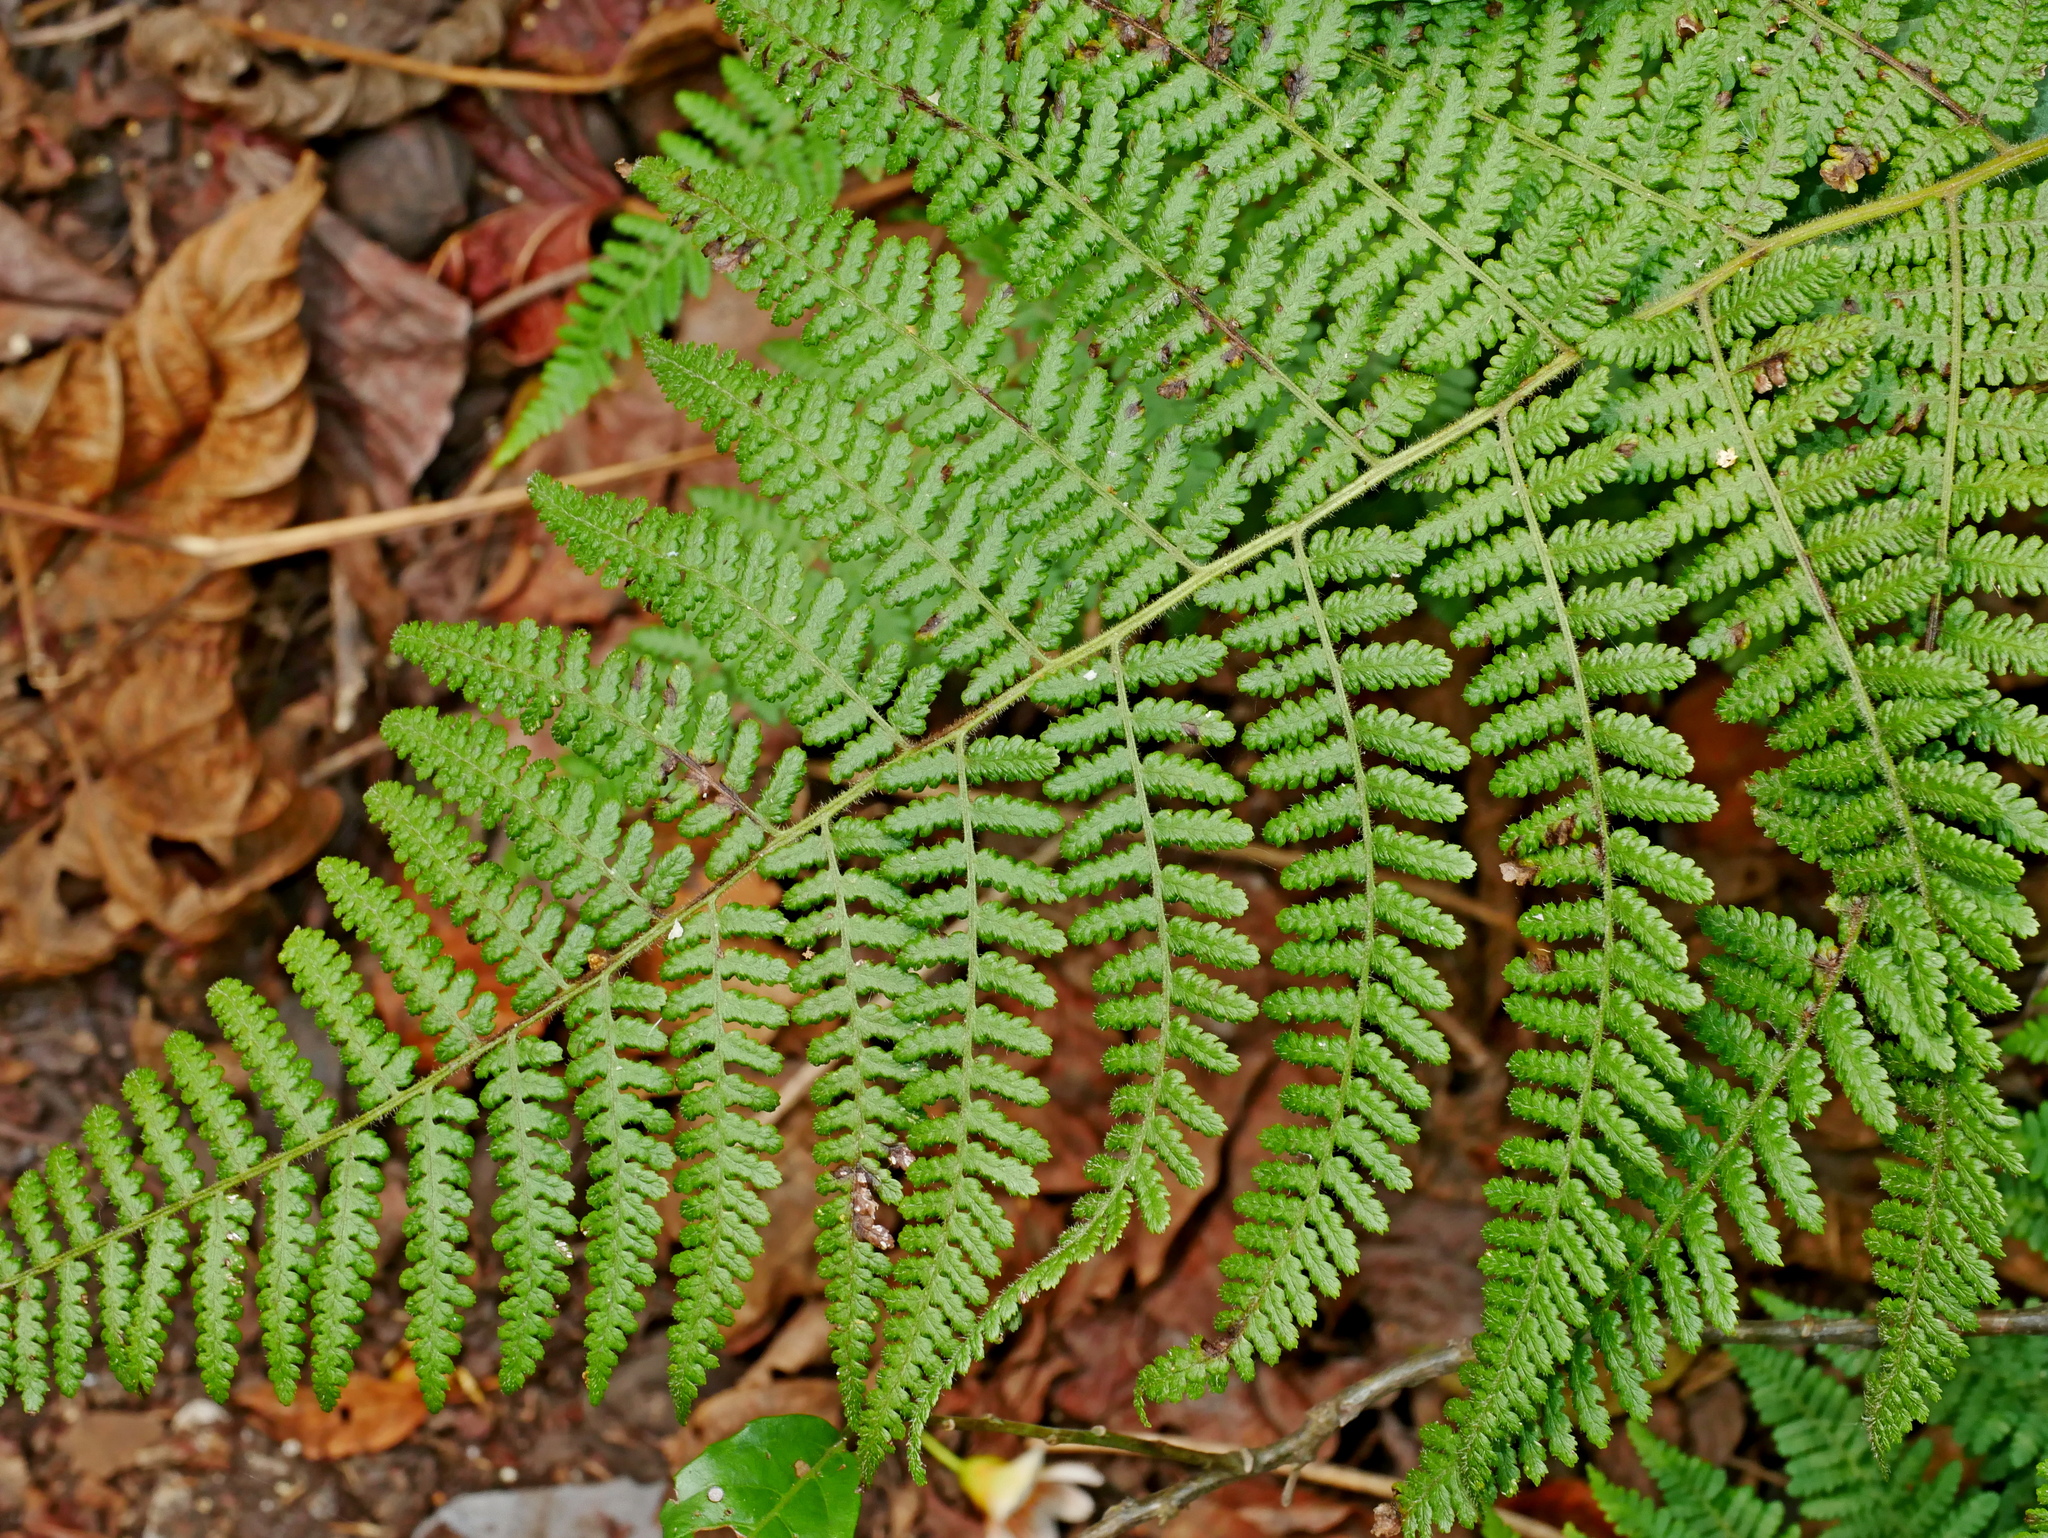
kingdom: Plantae
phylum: Tracheophyta
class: Polypodiopsida
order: Polypodiales
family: Dennstaedtiaceae
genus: Hypolepis
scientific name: Hypolepis punctata
